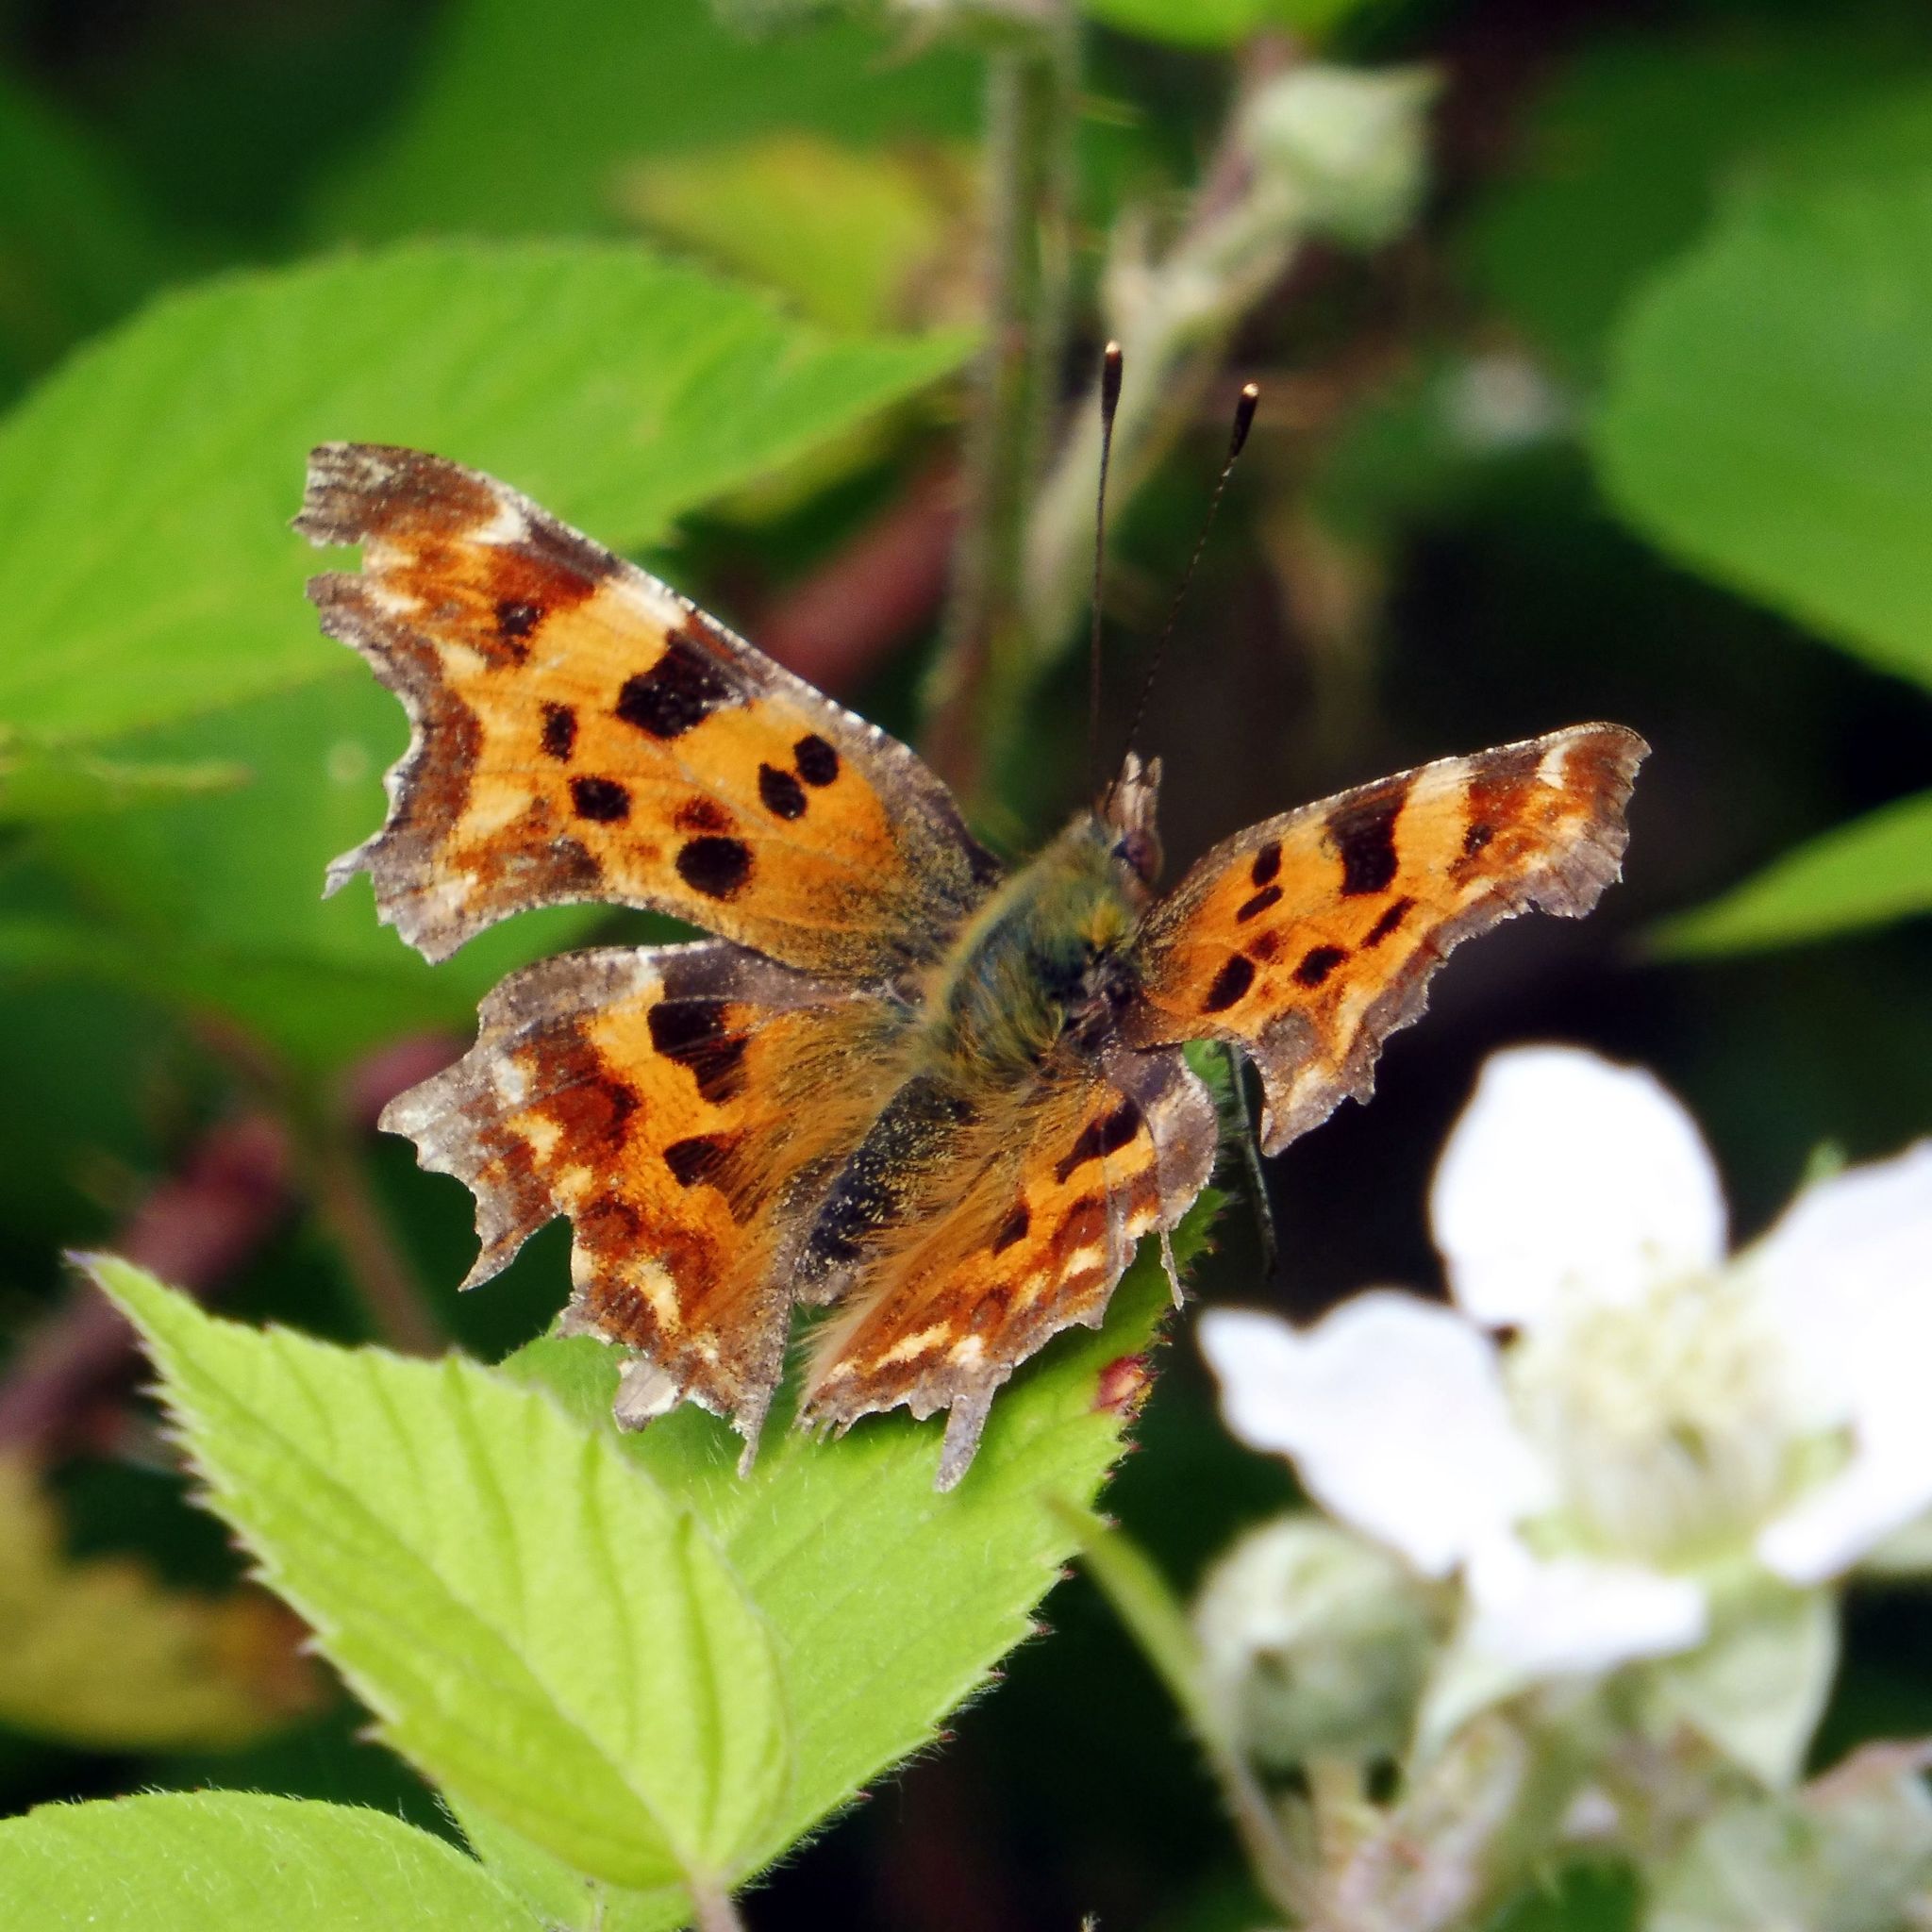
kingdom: Animalia
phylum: Arthropoda
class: Insecta
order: Lepidoptera
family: Nymphalidae
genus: Polygonia
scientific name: Polygonia c-album
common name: Comma
